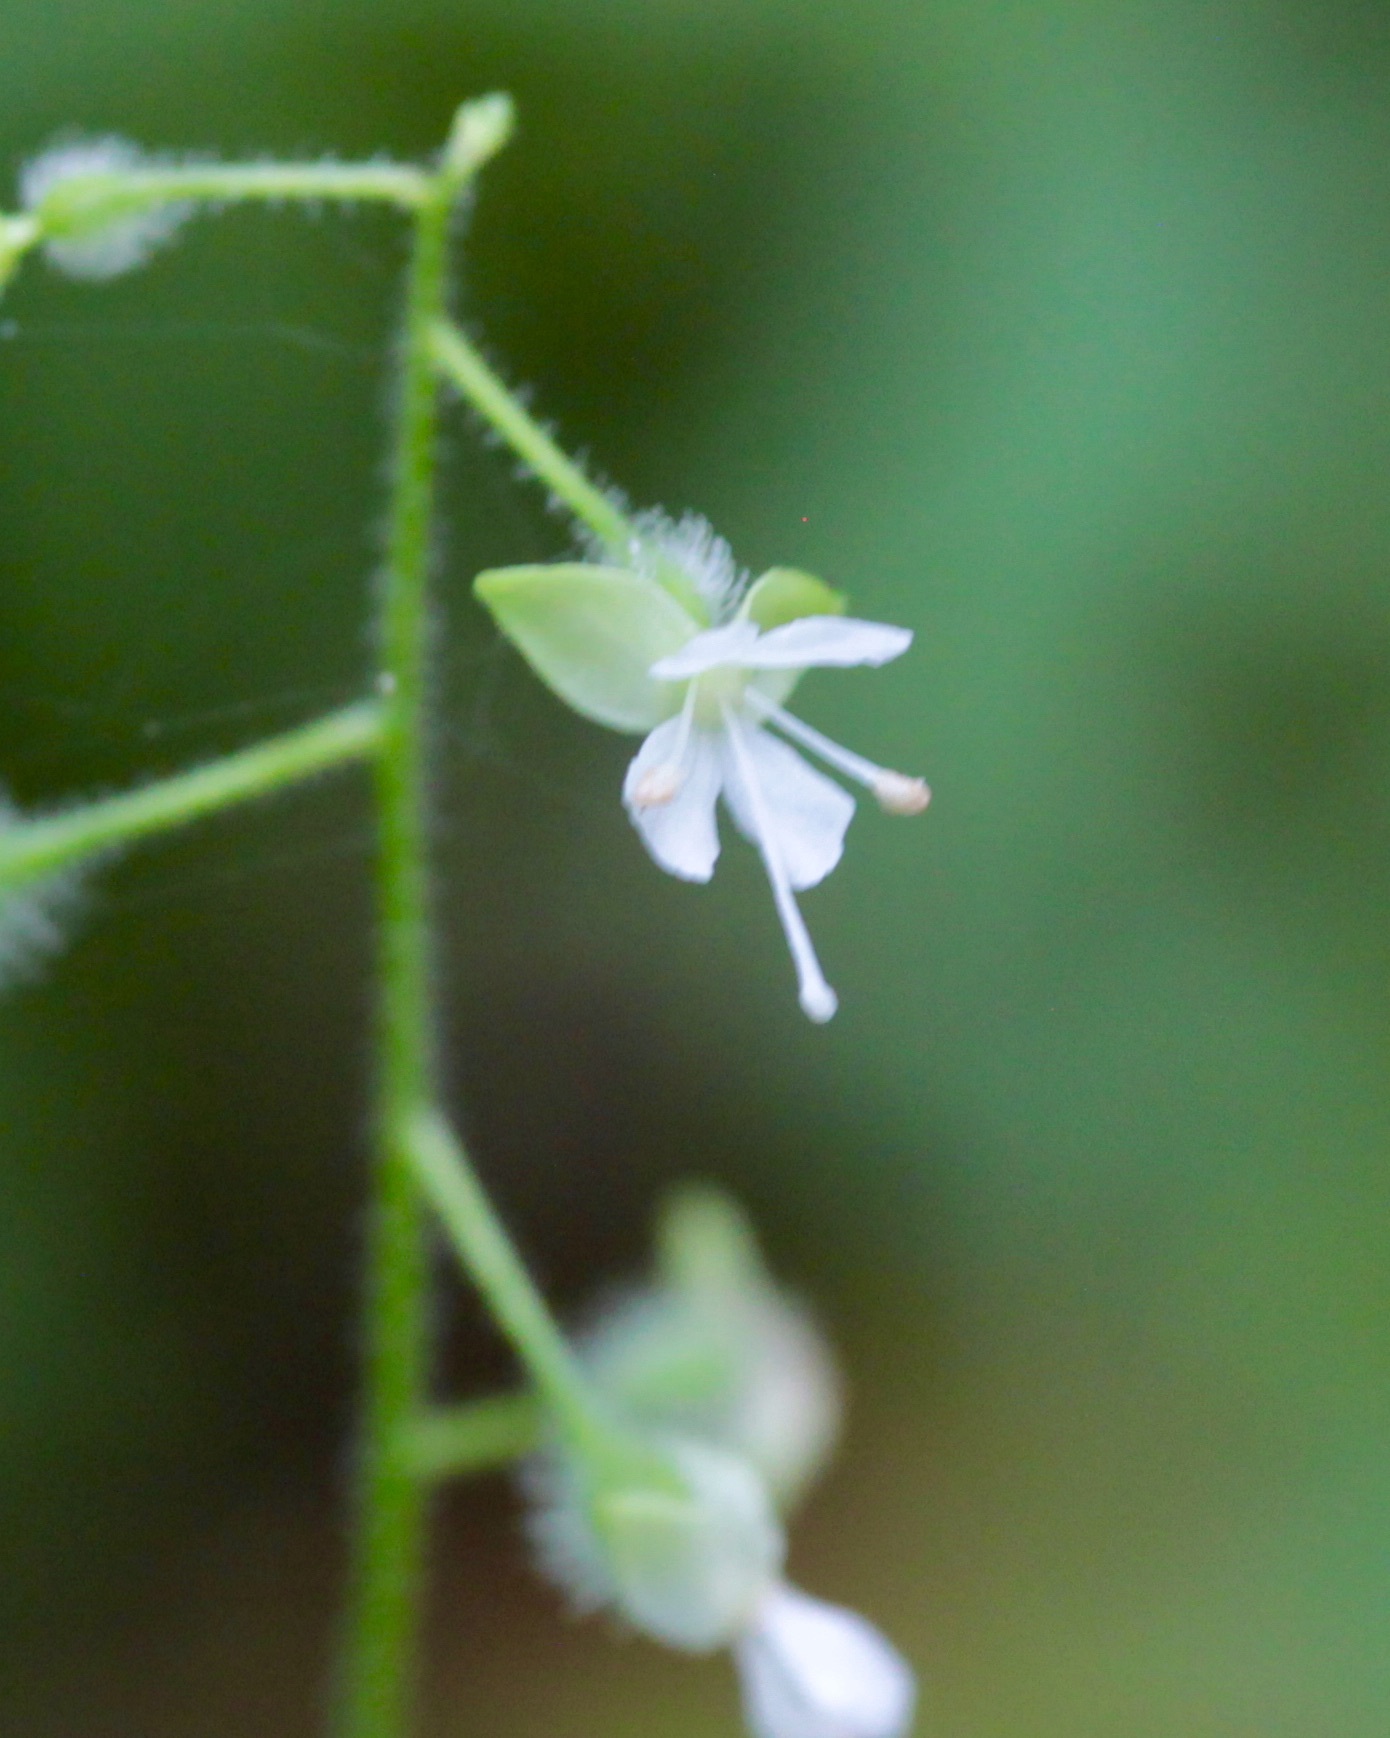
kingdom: Plantae
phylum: Tracheophyta
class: Magnoliopsida
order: Myrtales
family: Onagraceae
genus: Circaea
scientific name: Circaea canadensis
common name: Broad-leaved enchanter's nightshade
